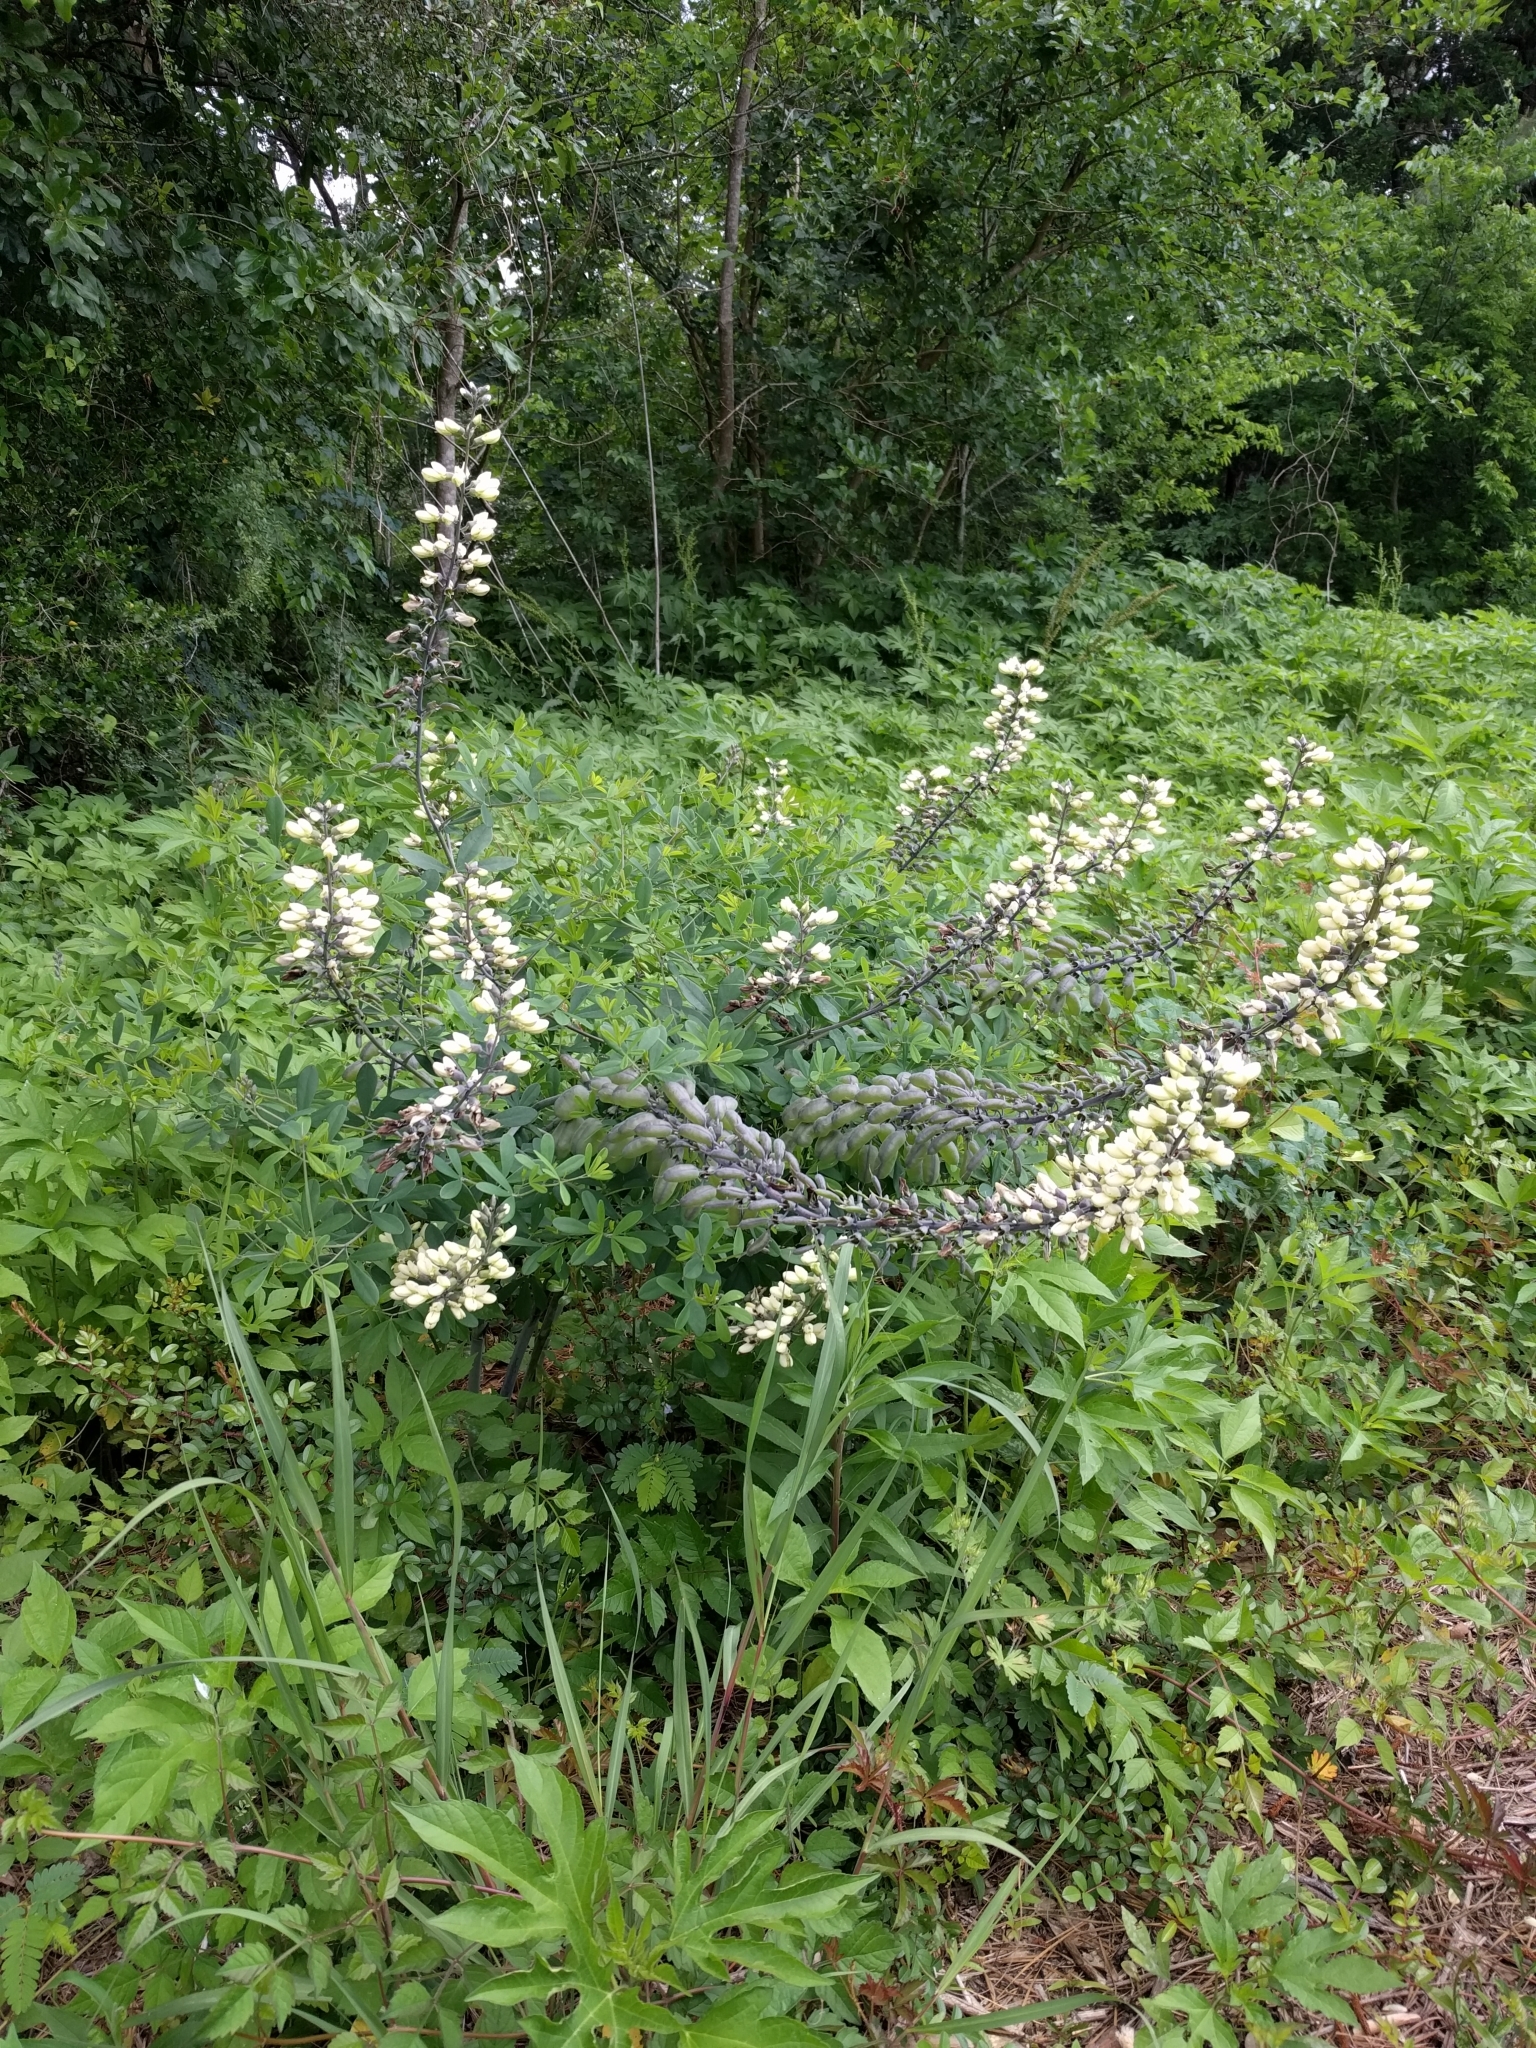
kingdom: Plantae
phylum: Tracheophyta
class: Magnoliopsida
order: Fabales
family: Fabaceae
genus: Baptisia
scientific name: Baptisia alba
